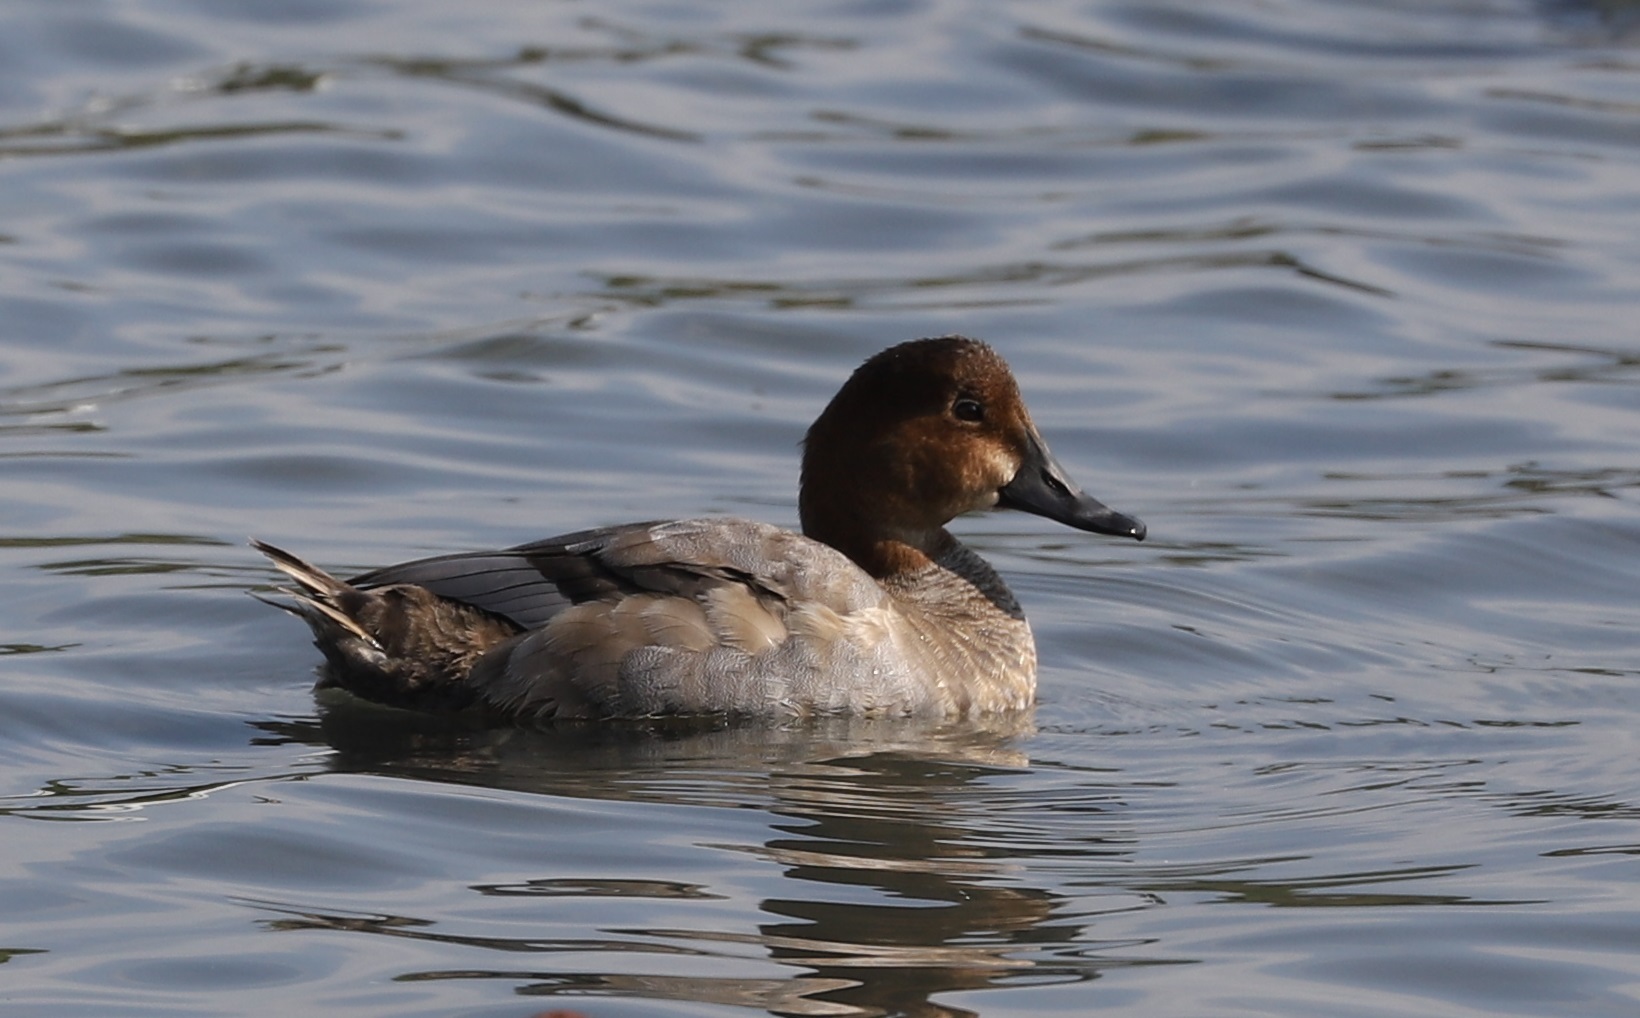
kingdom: Animalia
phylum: Chordata
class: Aves
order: Anseriformes
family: Anatidae
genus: Aythya
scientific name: Aythya ferina
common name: Common pochard
